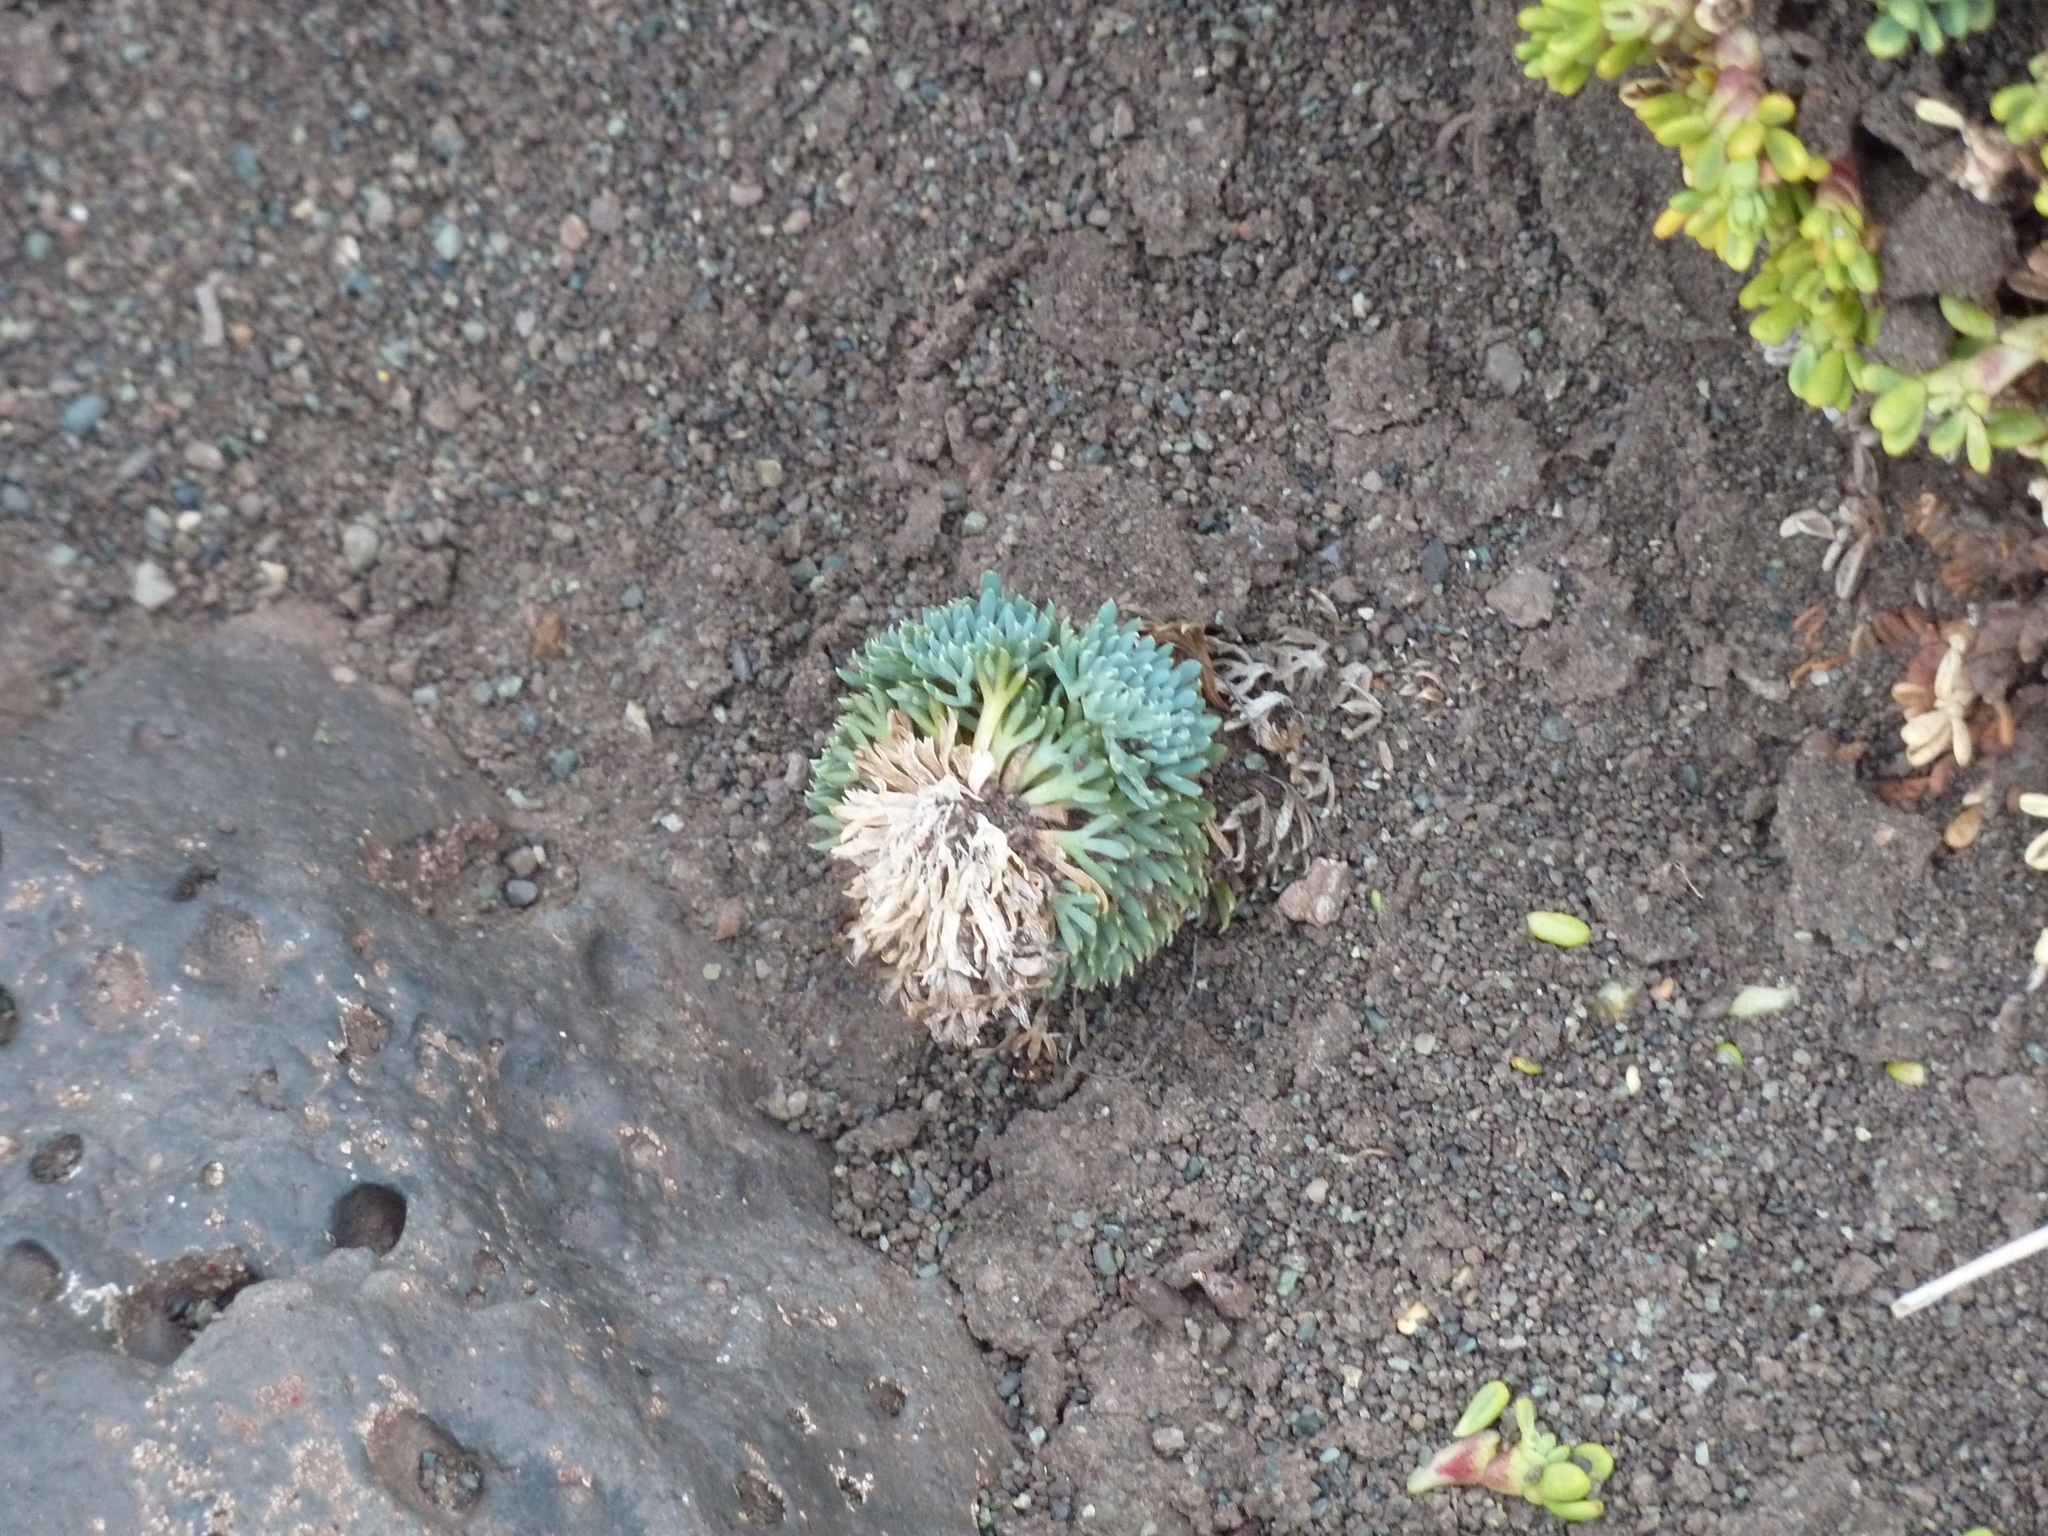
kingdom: Plantae
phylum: Tracheophyta
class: Magnoliopsida
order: Asterales
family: Calyceraceae
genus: Moschopsis
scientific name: Moschopsis trilobata
